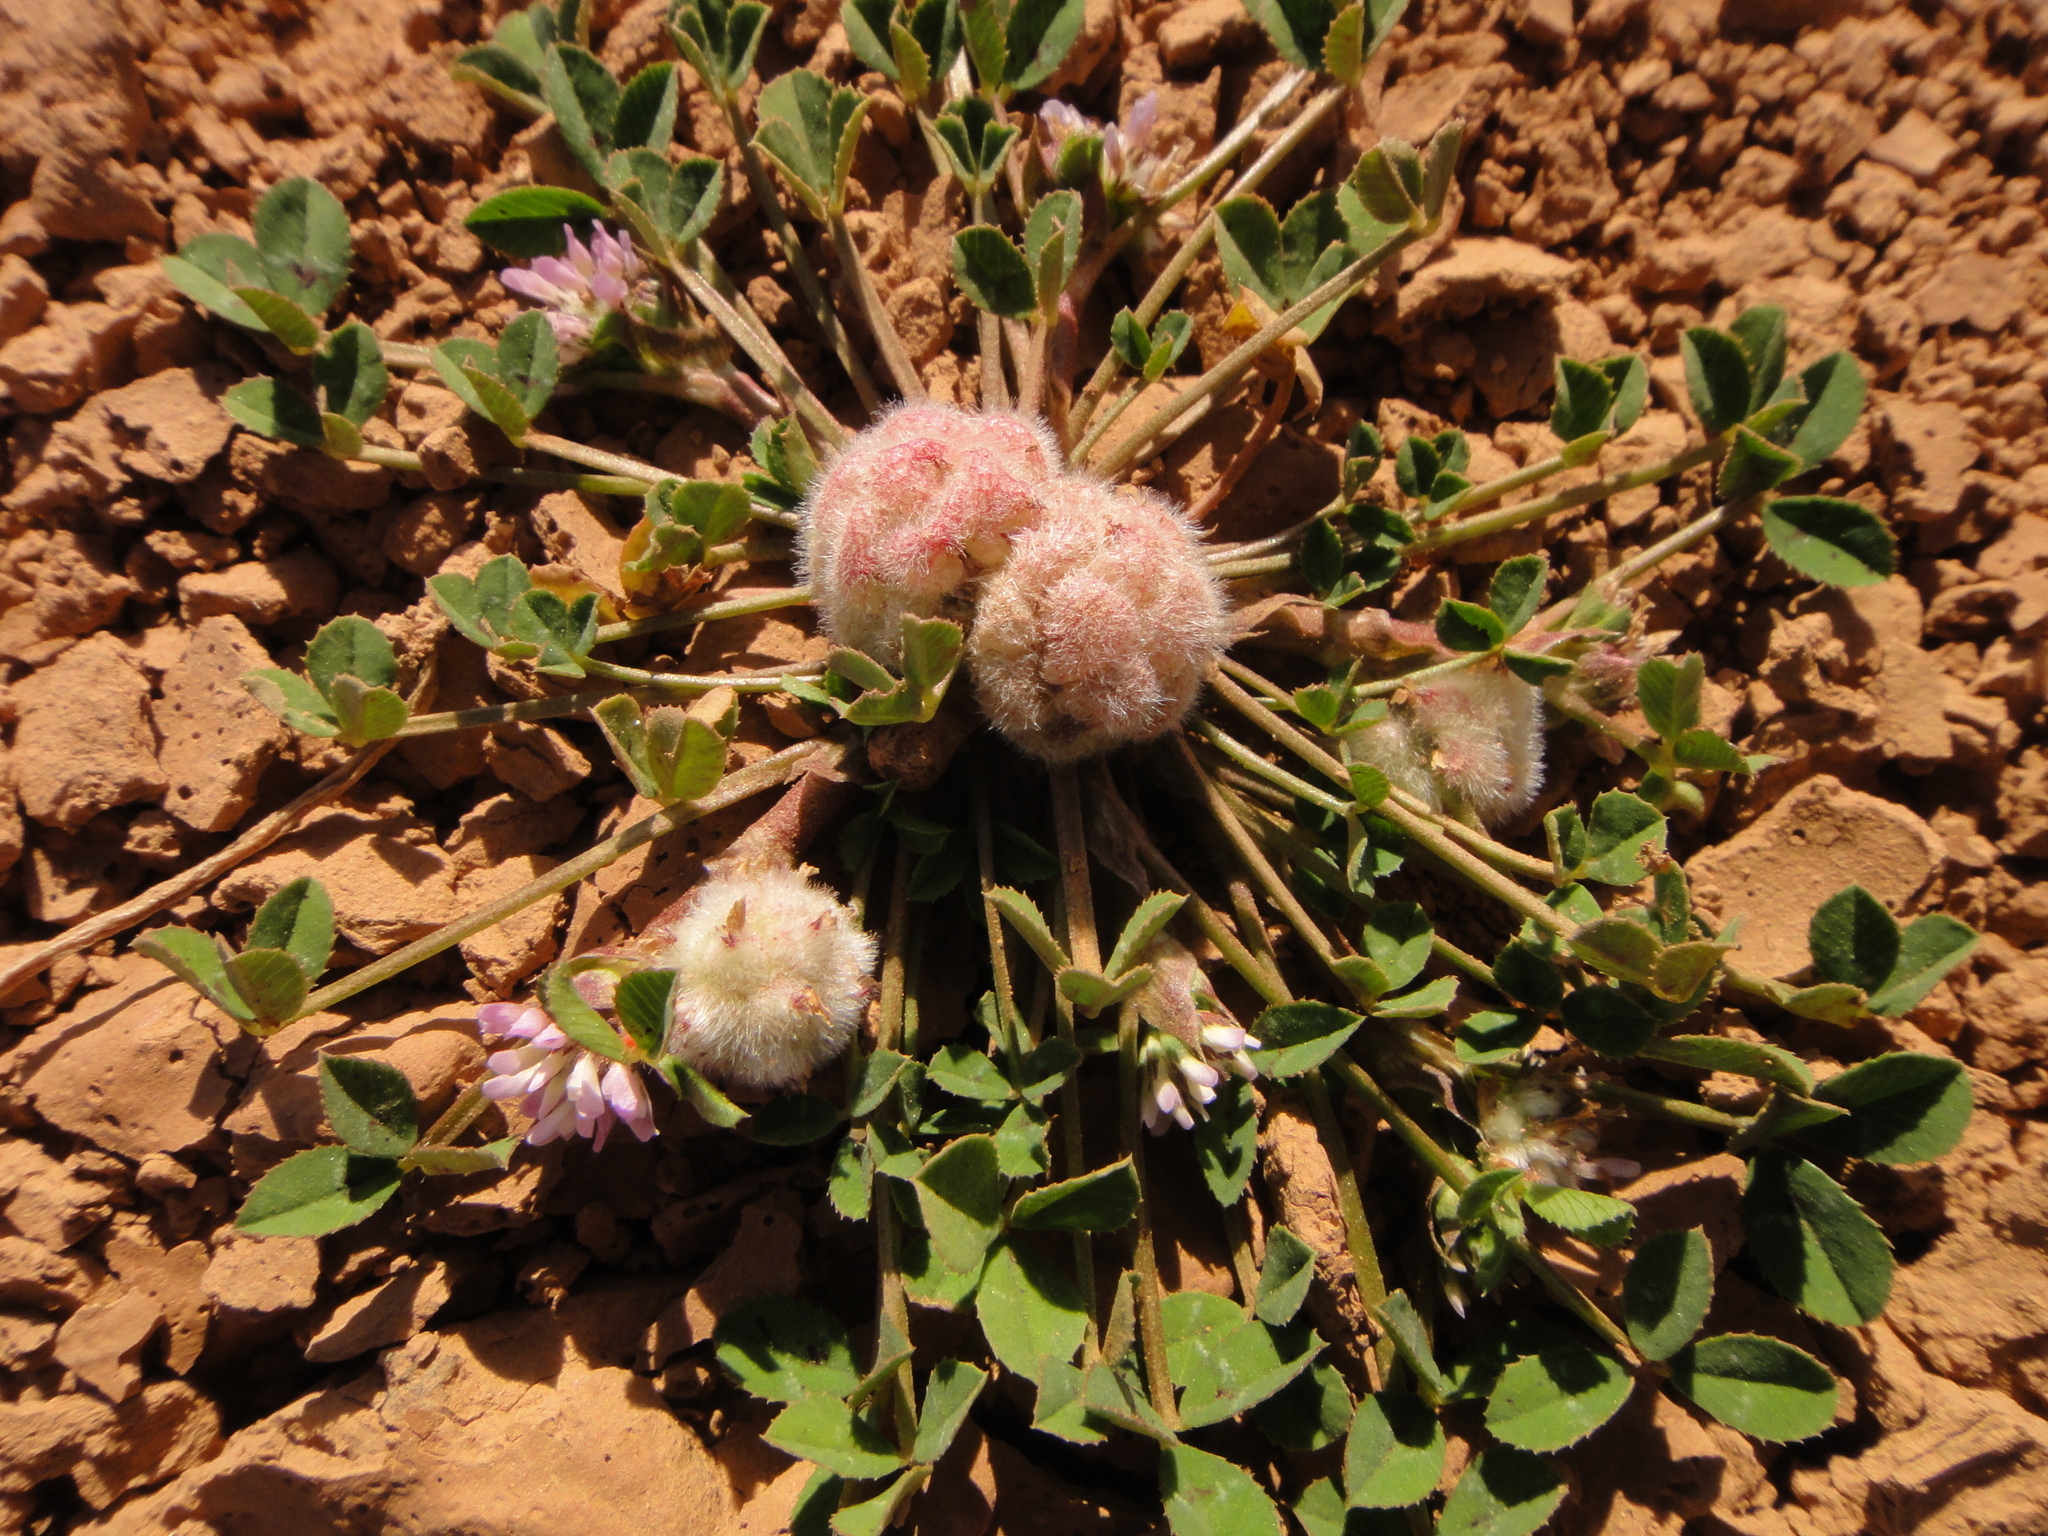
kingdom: Plantae
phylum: Tracheophyta
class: Magnoliopsida
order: Fabales
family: Fabaceae
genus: Trifolium
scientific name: Trifolium tomentosum
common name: Woolly clover
